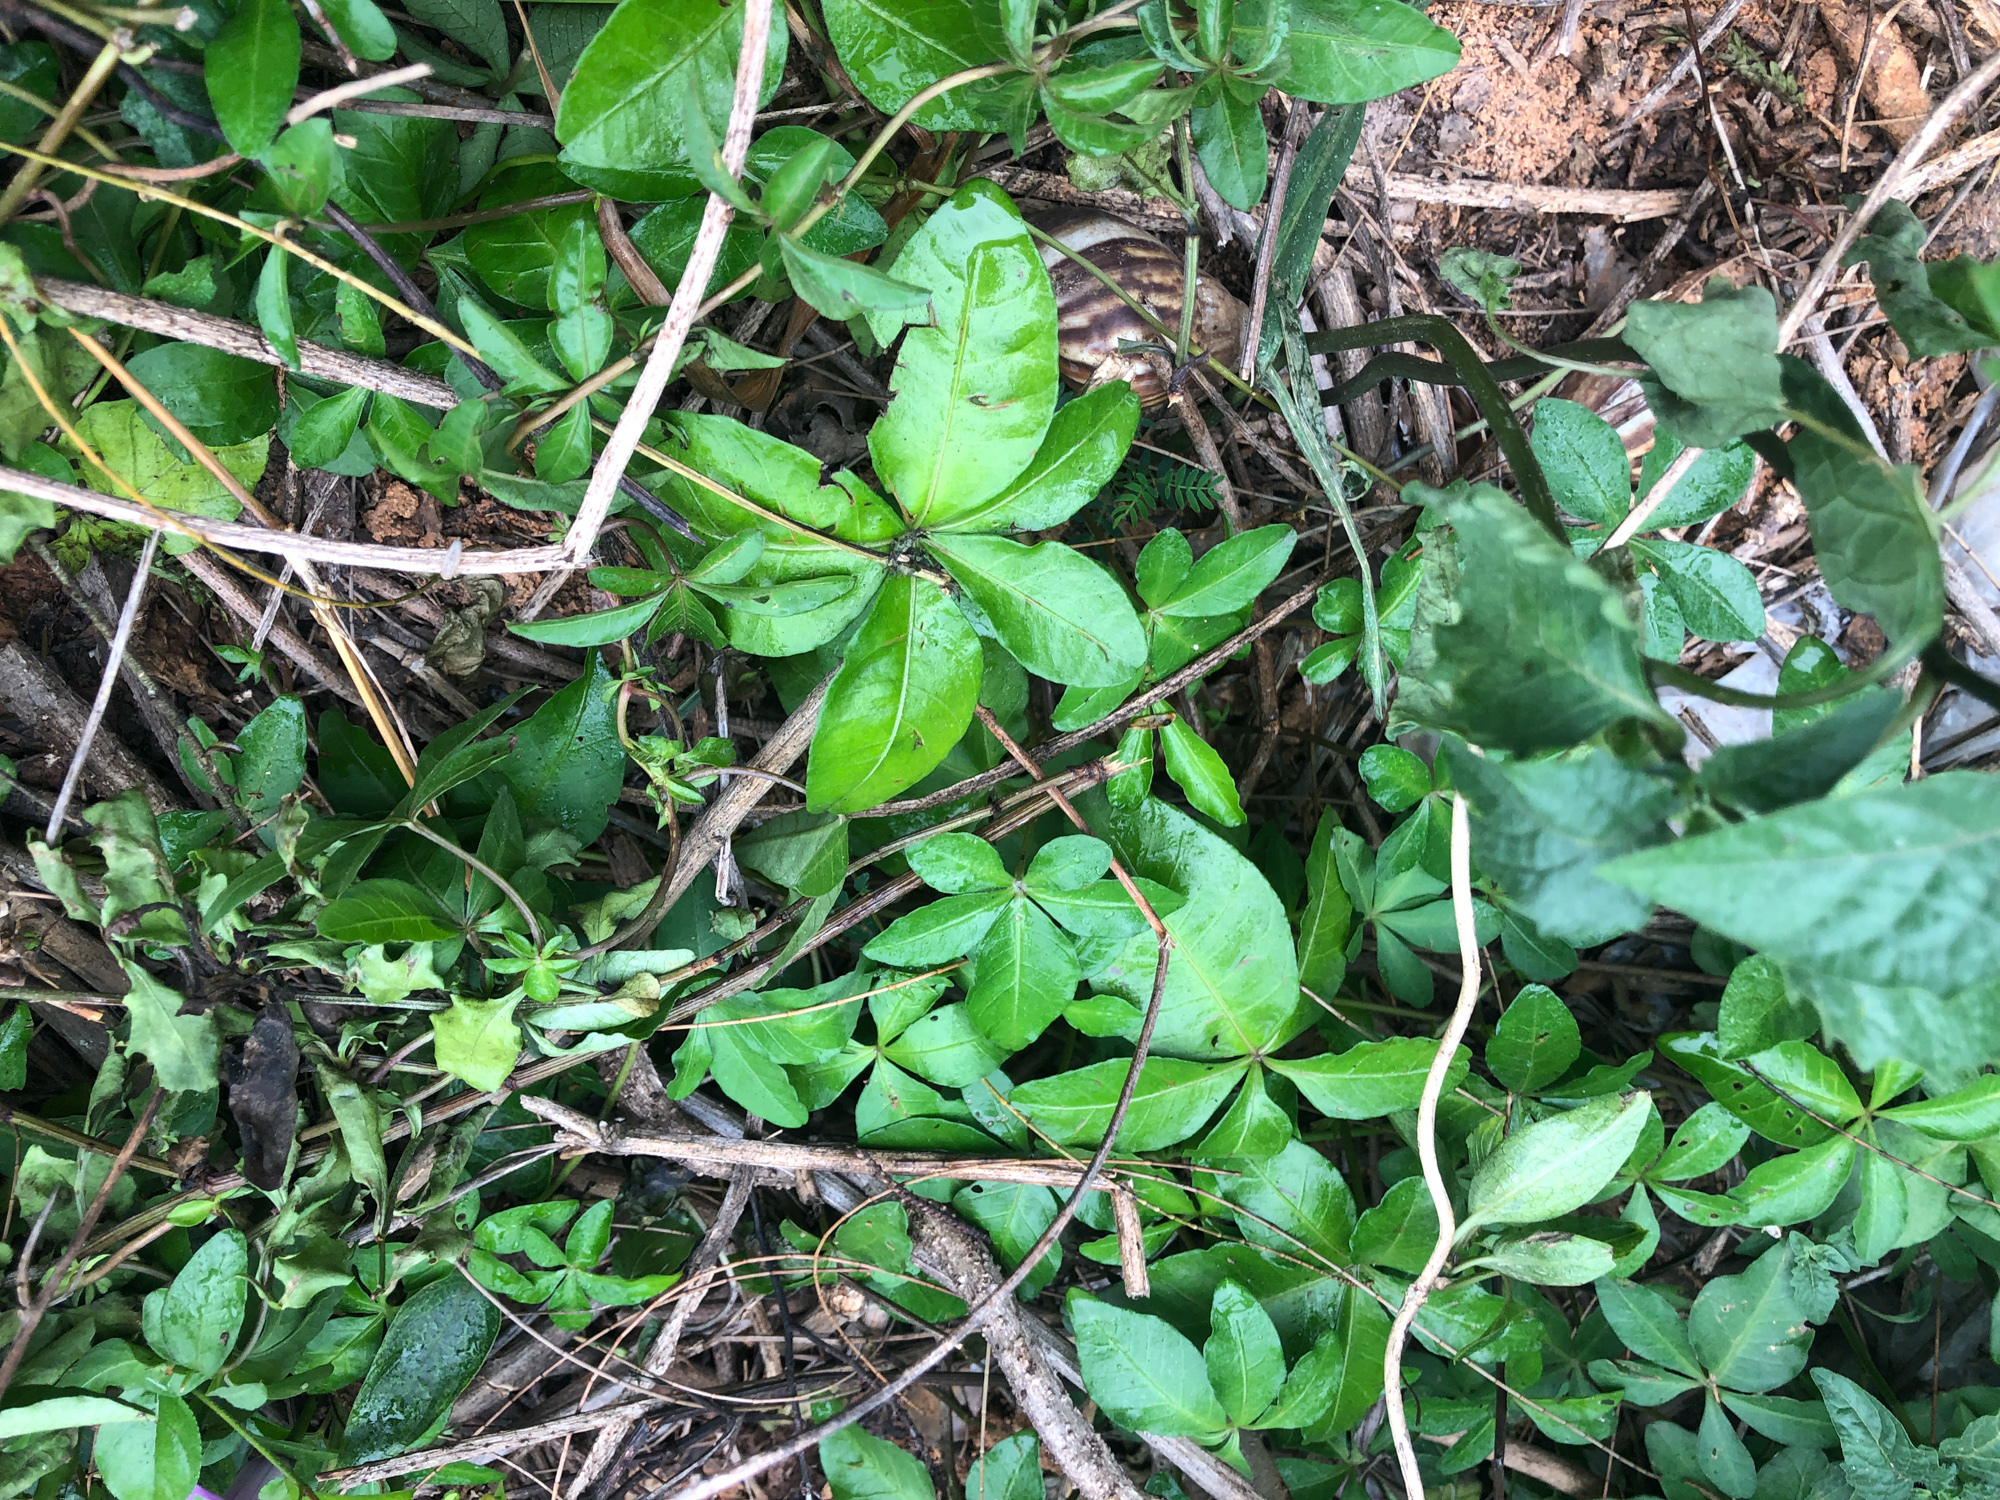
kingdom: Plantae
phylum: Tracheophyta
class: Magnoliopsida
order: Solanales
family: Convolvulaceae
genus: Ipomoea
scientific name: Ipomoea cairica
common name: Mile a minute vine
